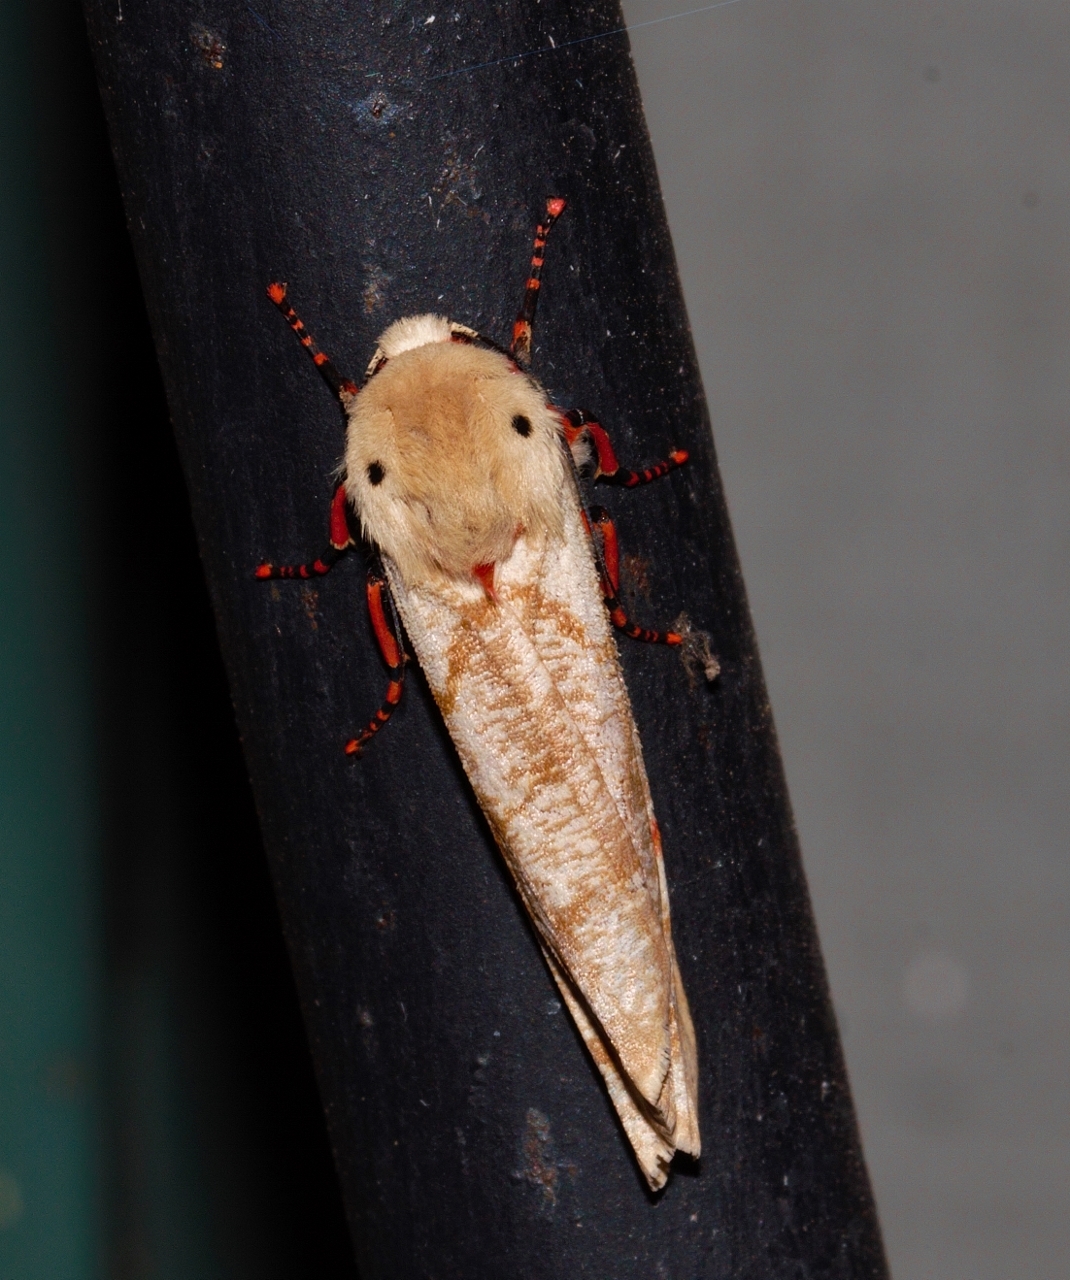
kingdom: Animalia
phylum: Arthropoda
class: Insecta
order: Lepidoptera
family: Erebidae
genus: Teracotona
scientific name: Teracotona metaxantha
